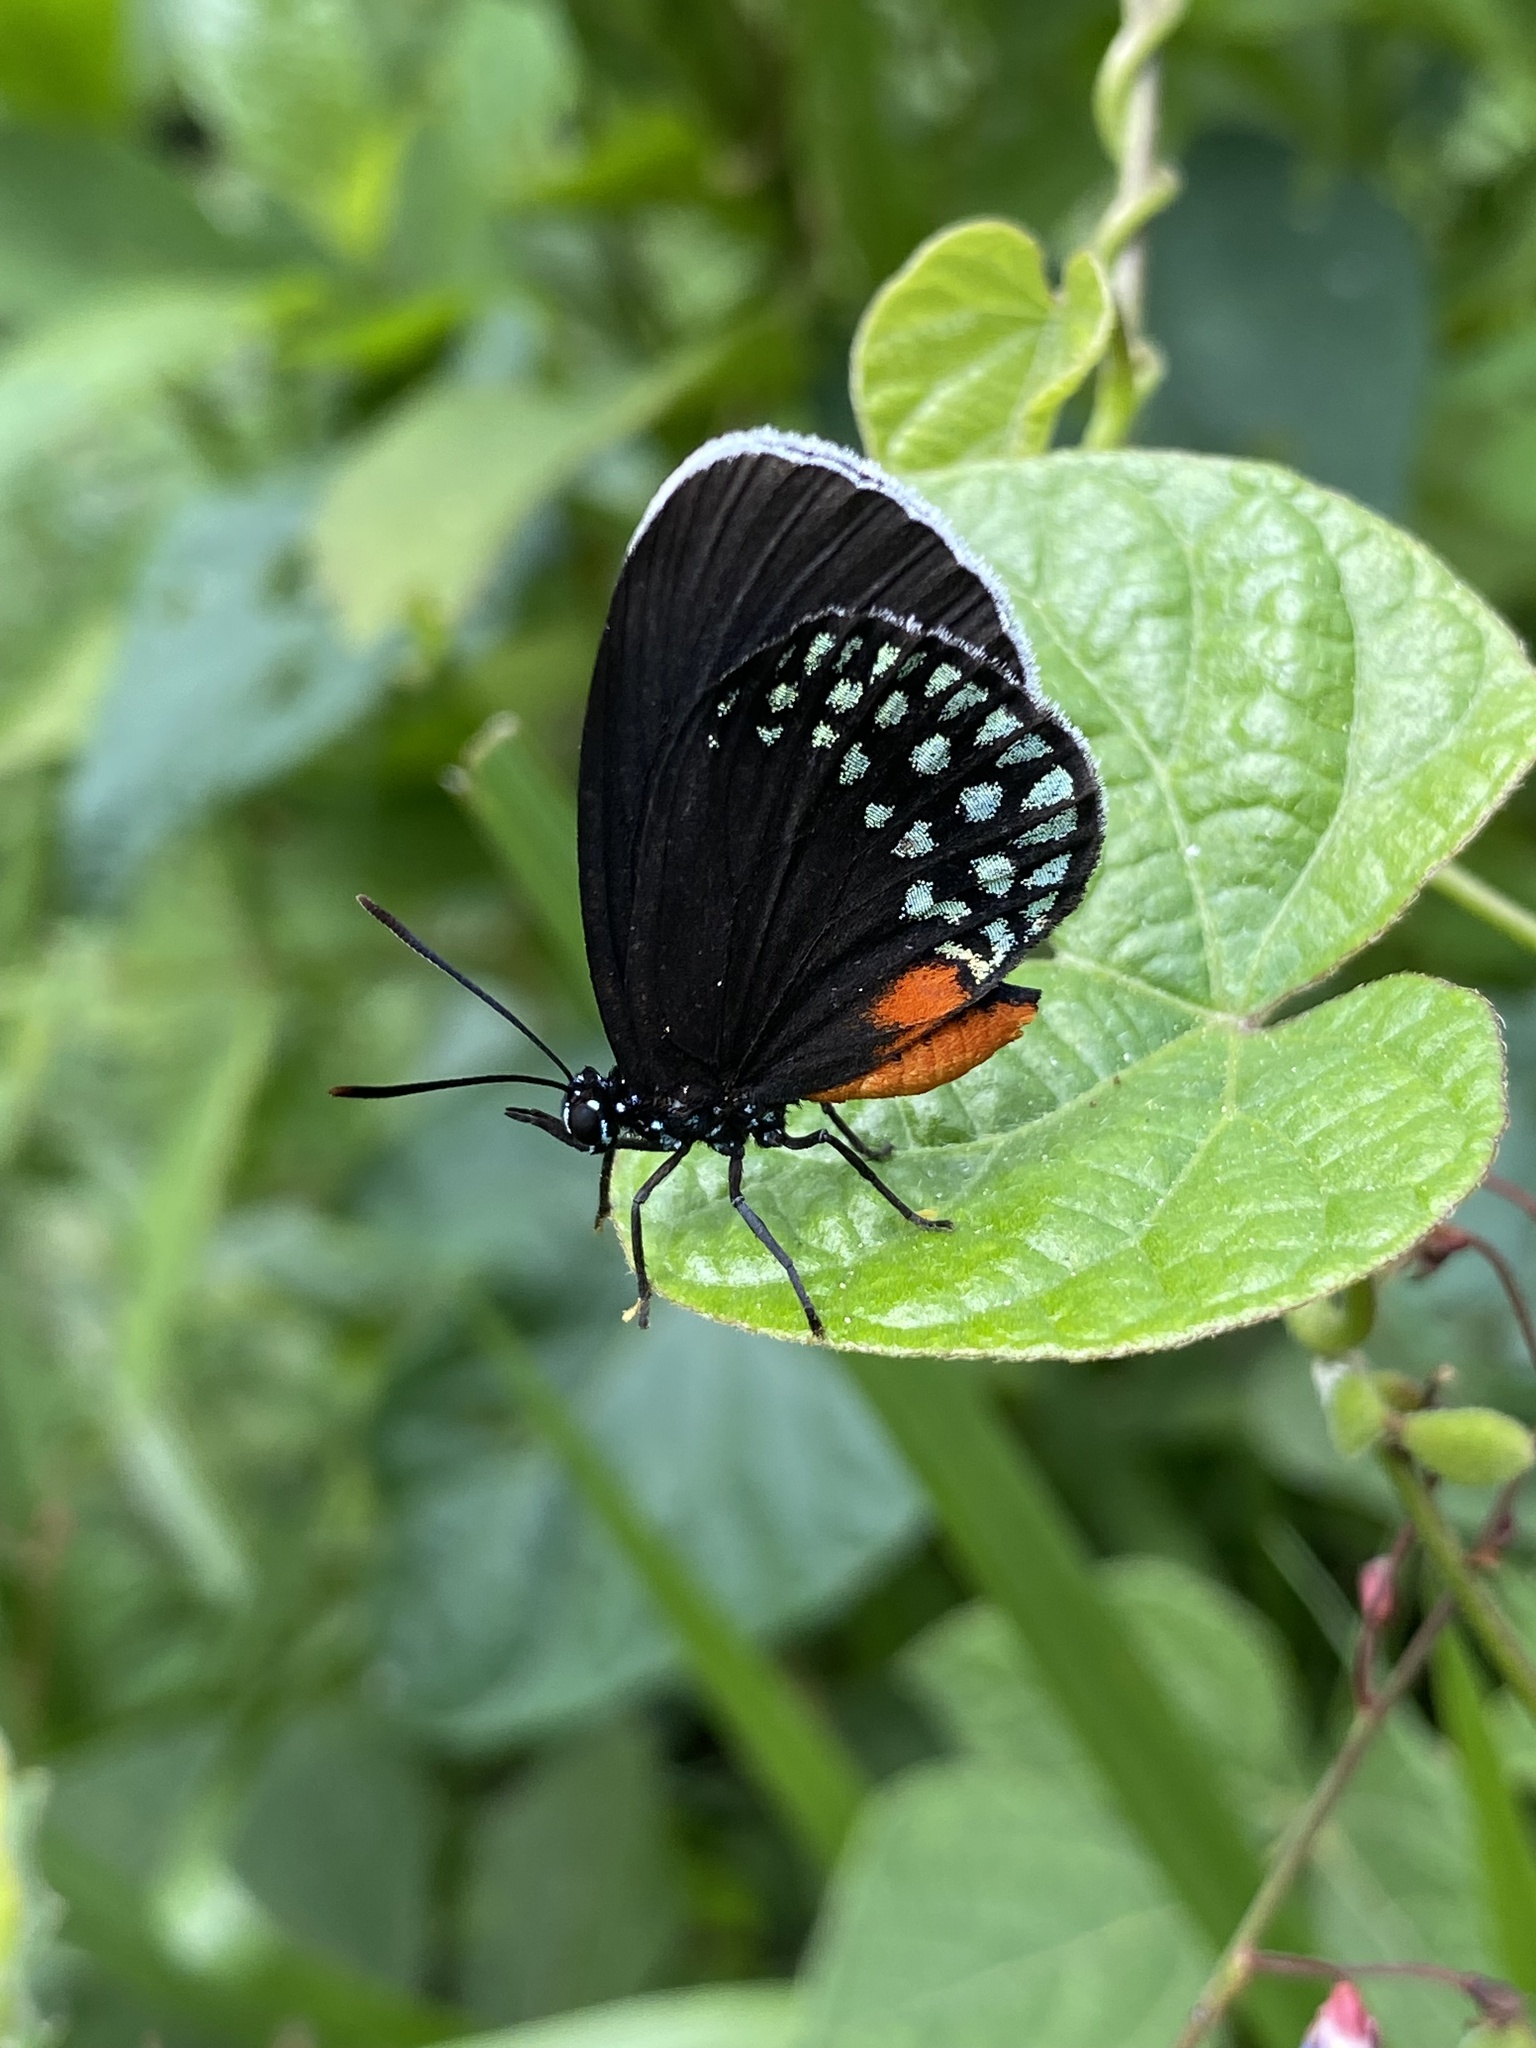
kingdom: Animalia
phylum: Arthropoda
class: Insecta
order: Lepidoptera
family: Lycaenidae
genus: Eumaeus
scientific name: Eumaeus toxea
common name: Mexican cycadian
